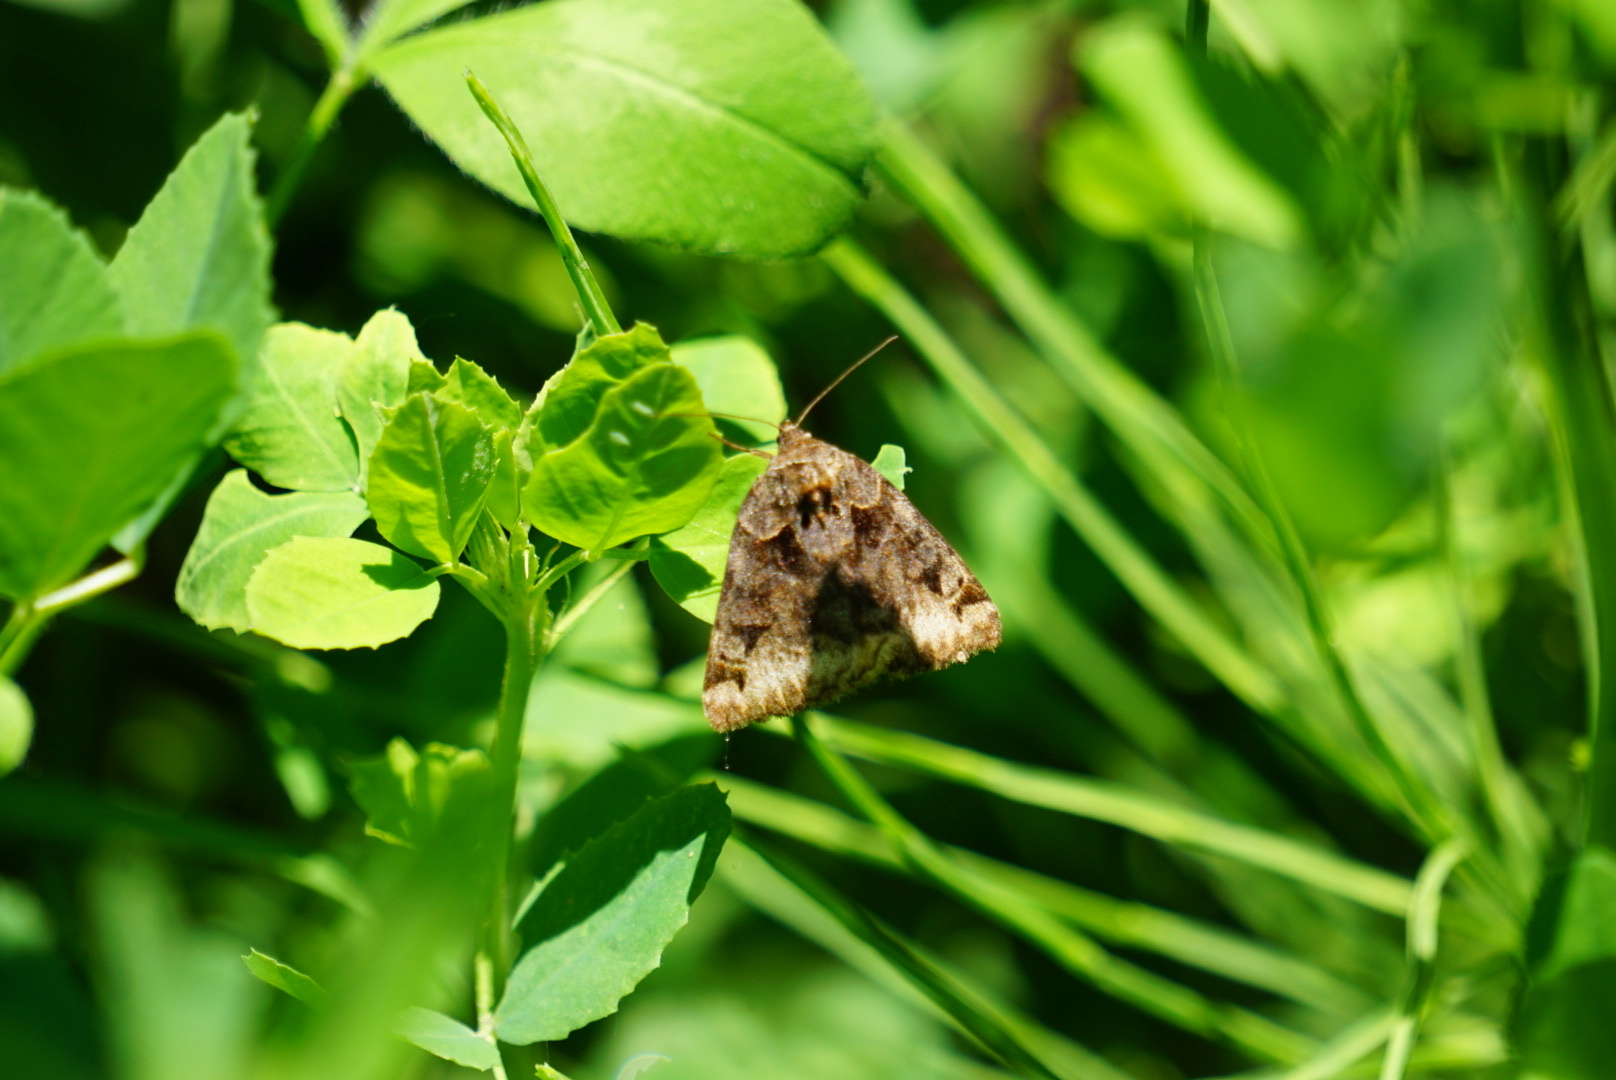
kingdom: Animalia
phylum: Arthropoda
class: Insecta
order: Lepidoptera
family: Erebidae
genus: Euclidia
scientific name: Euclidia cuspidea
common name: Toothed somberwing
